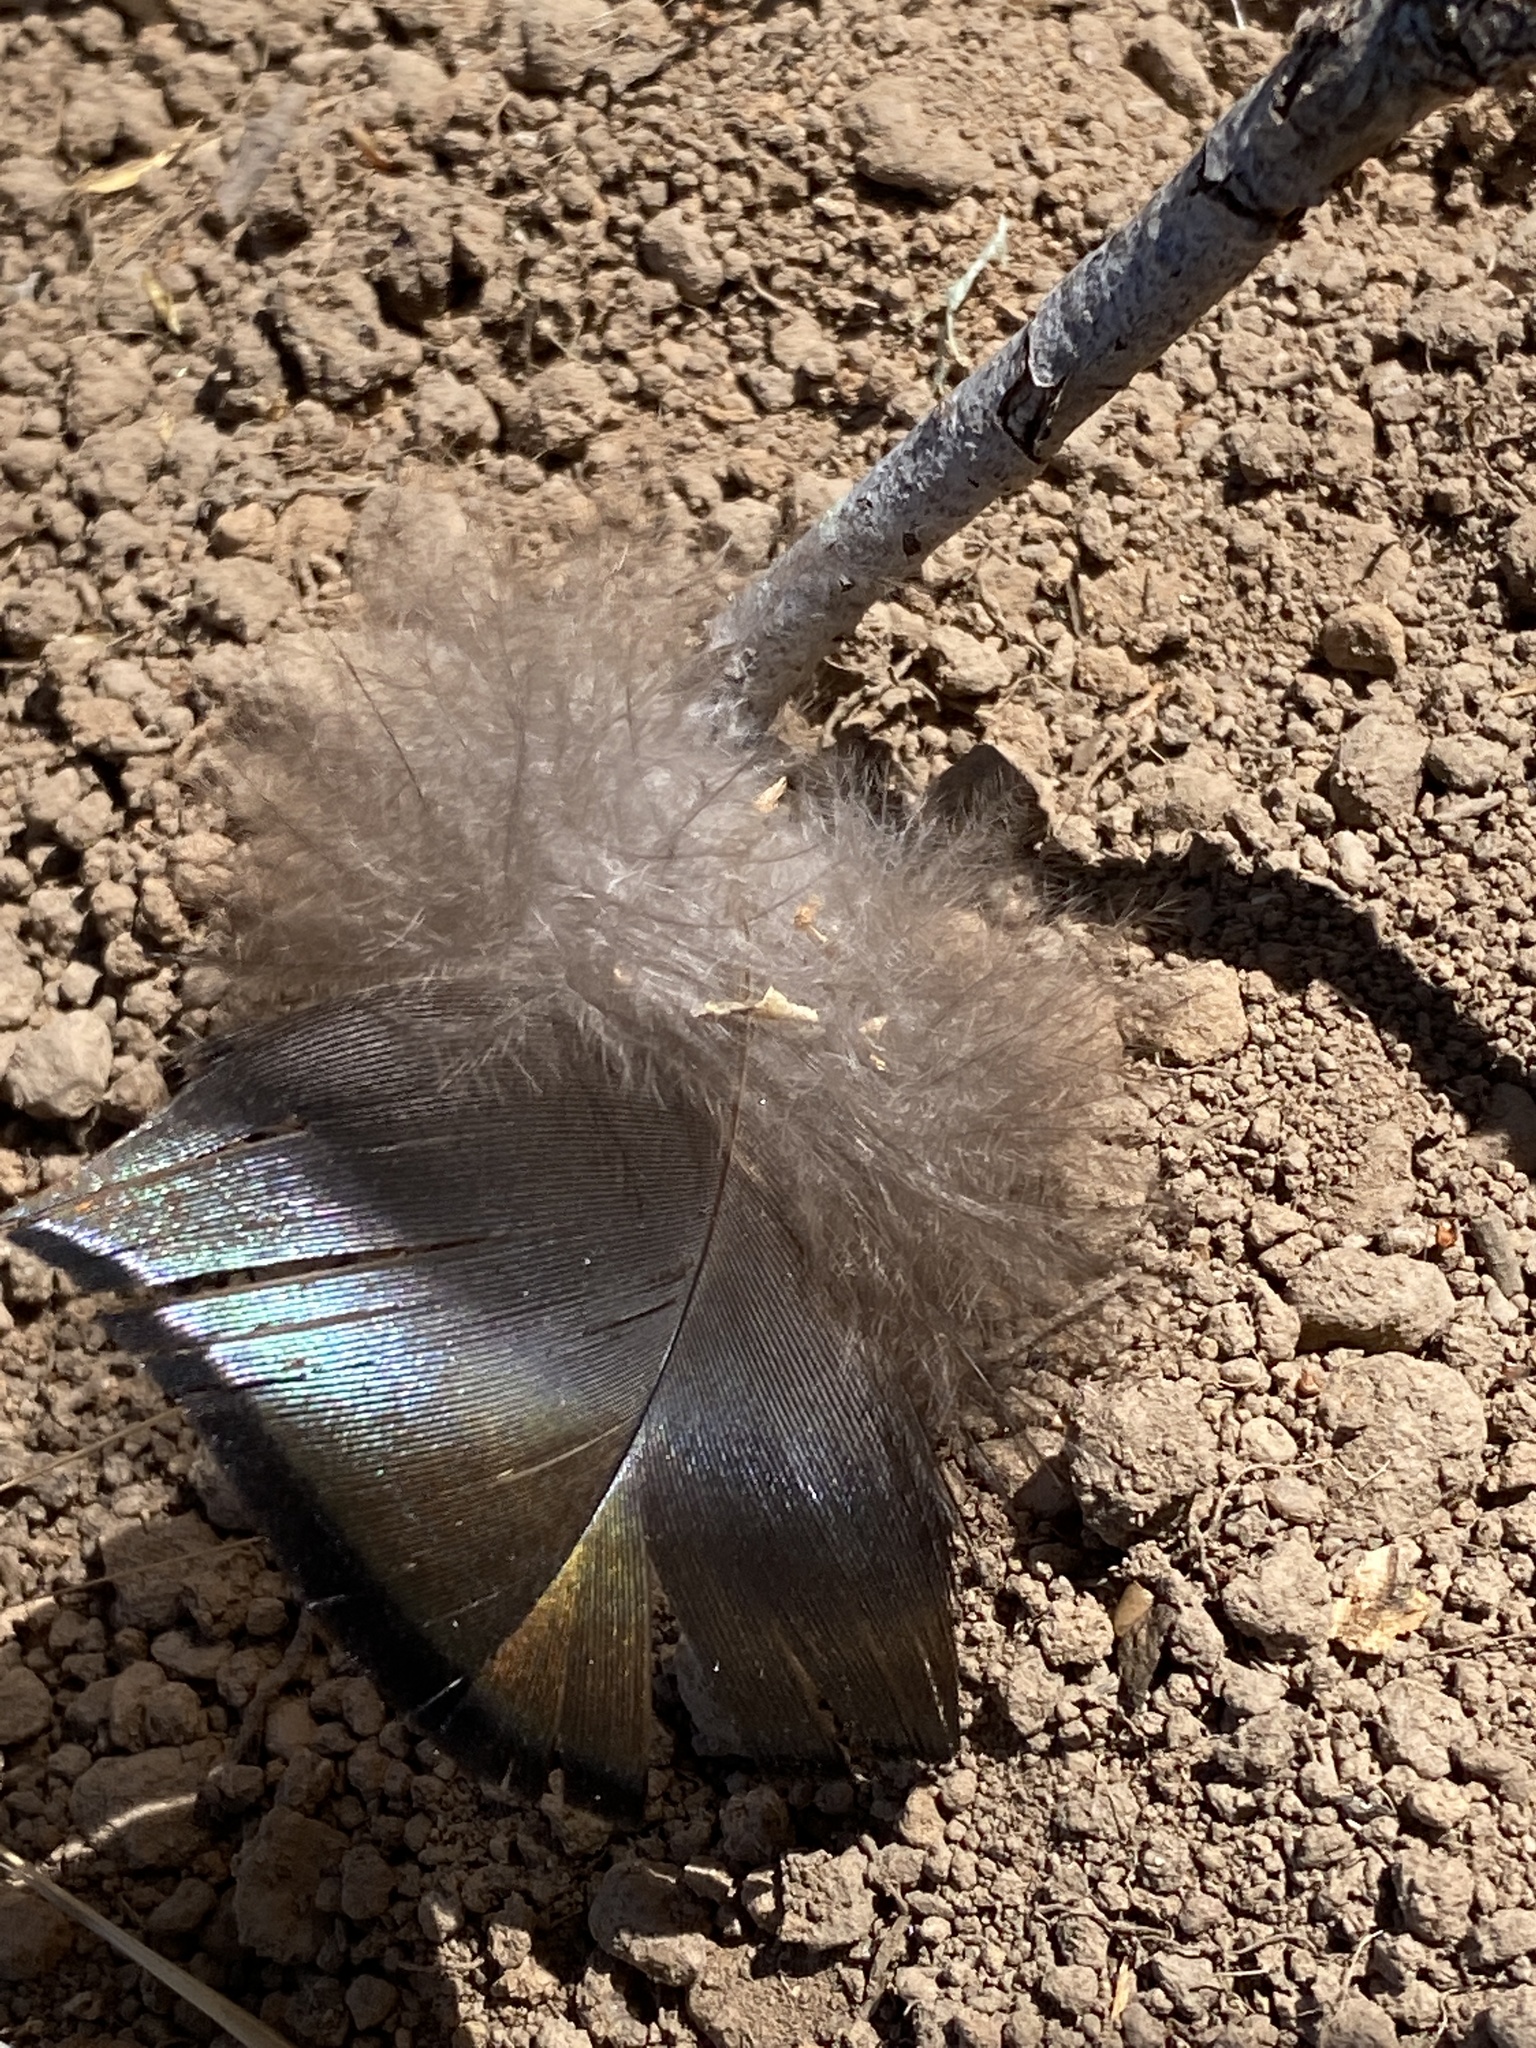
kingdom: Animalia
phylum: Chordata
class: Aves
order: Galliformes
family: Phasianidae
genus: Meleagris
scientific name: Meleagris gallopavo
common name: Wild turkey
